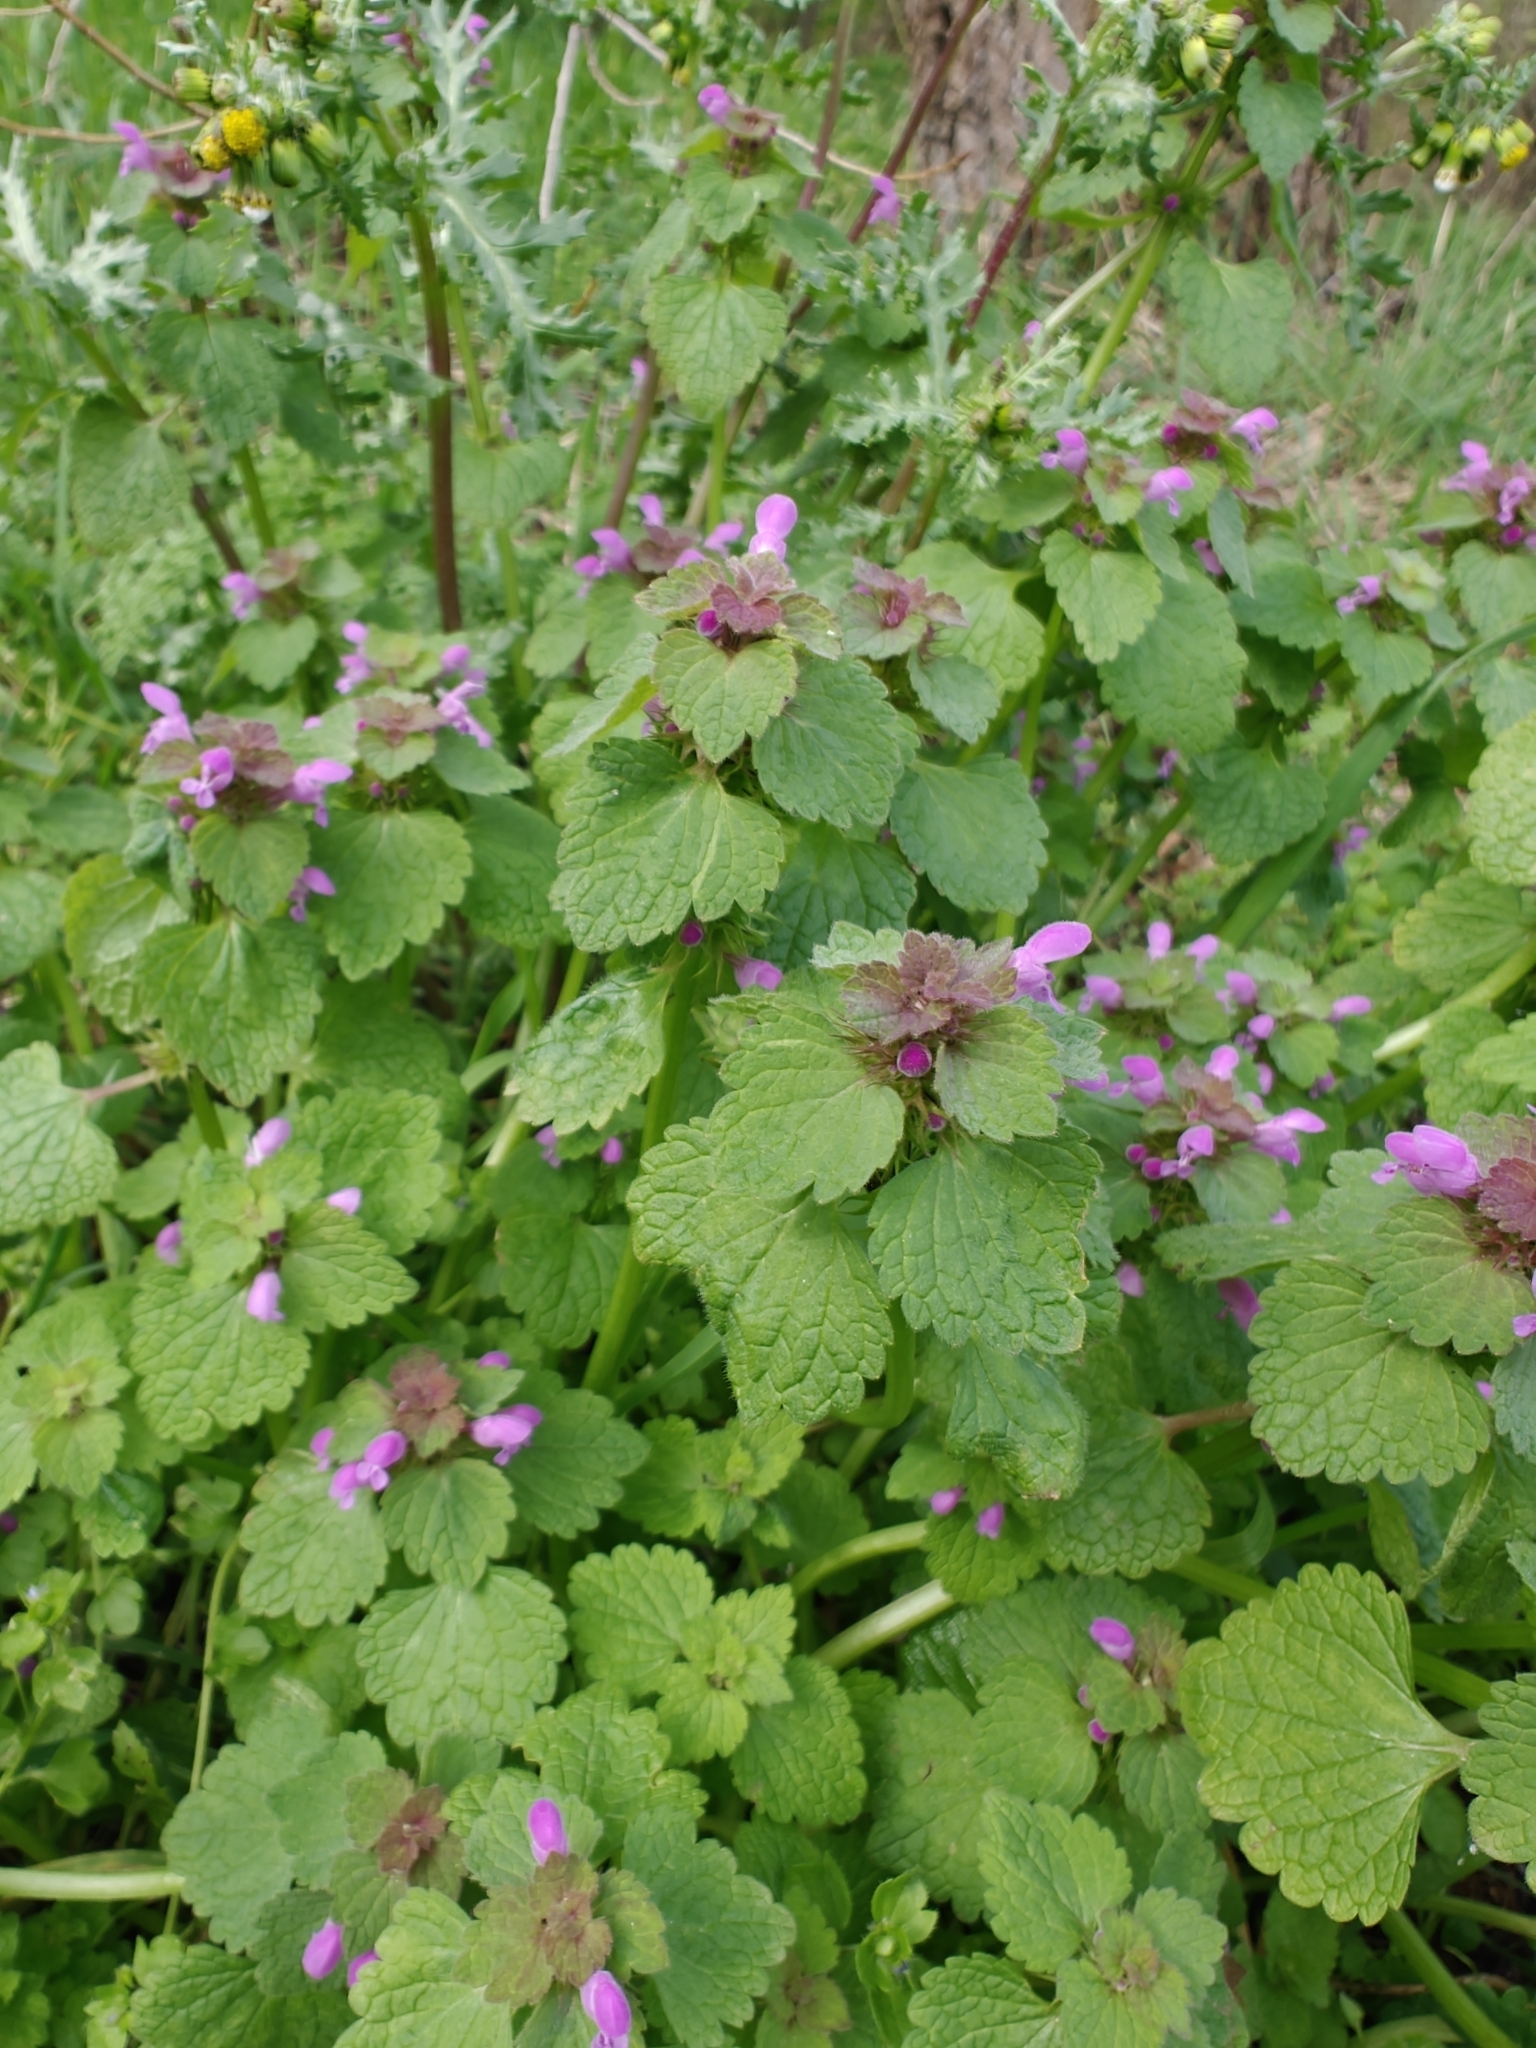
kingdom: Plantae
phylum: Tracheophyta
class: Magnoliopsida
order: Lamiales
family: Lamiaceae
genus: Lamium
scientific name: Lamium purpureum
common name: Red dead-nettle
